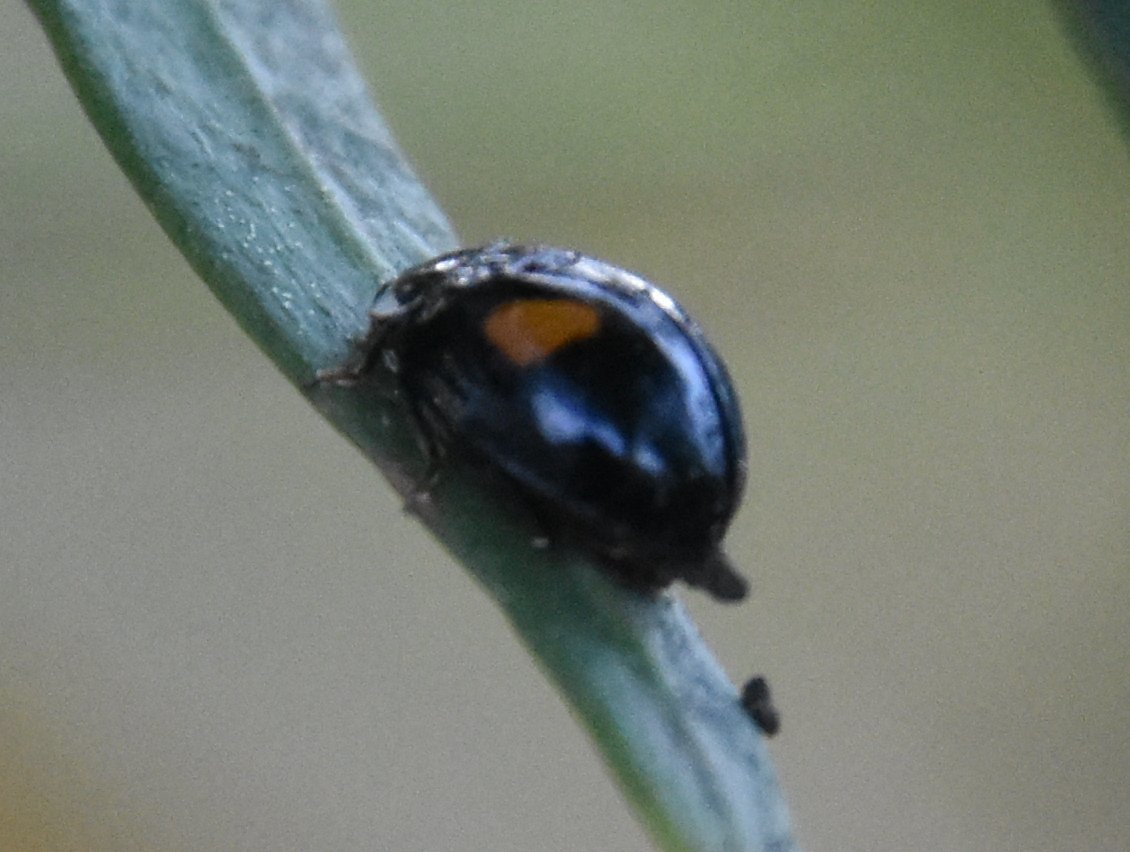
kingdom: Animalia
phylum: Arthropoda
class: Insecta
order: Coleoptera
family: Coccinellidae
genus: Olla
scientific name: Olla v-nigrum
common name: Ashy gray lady beetle
